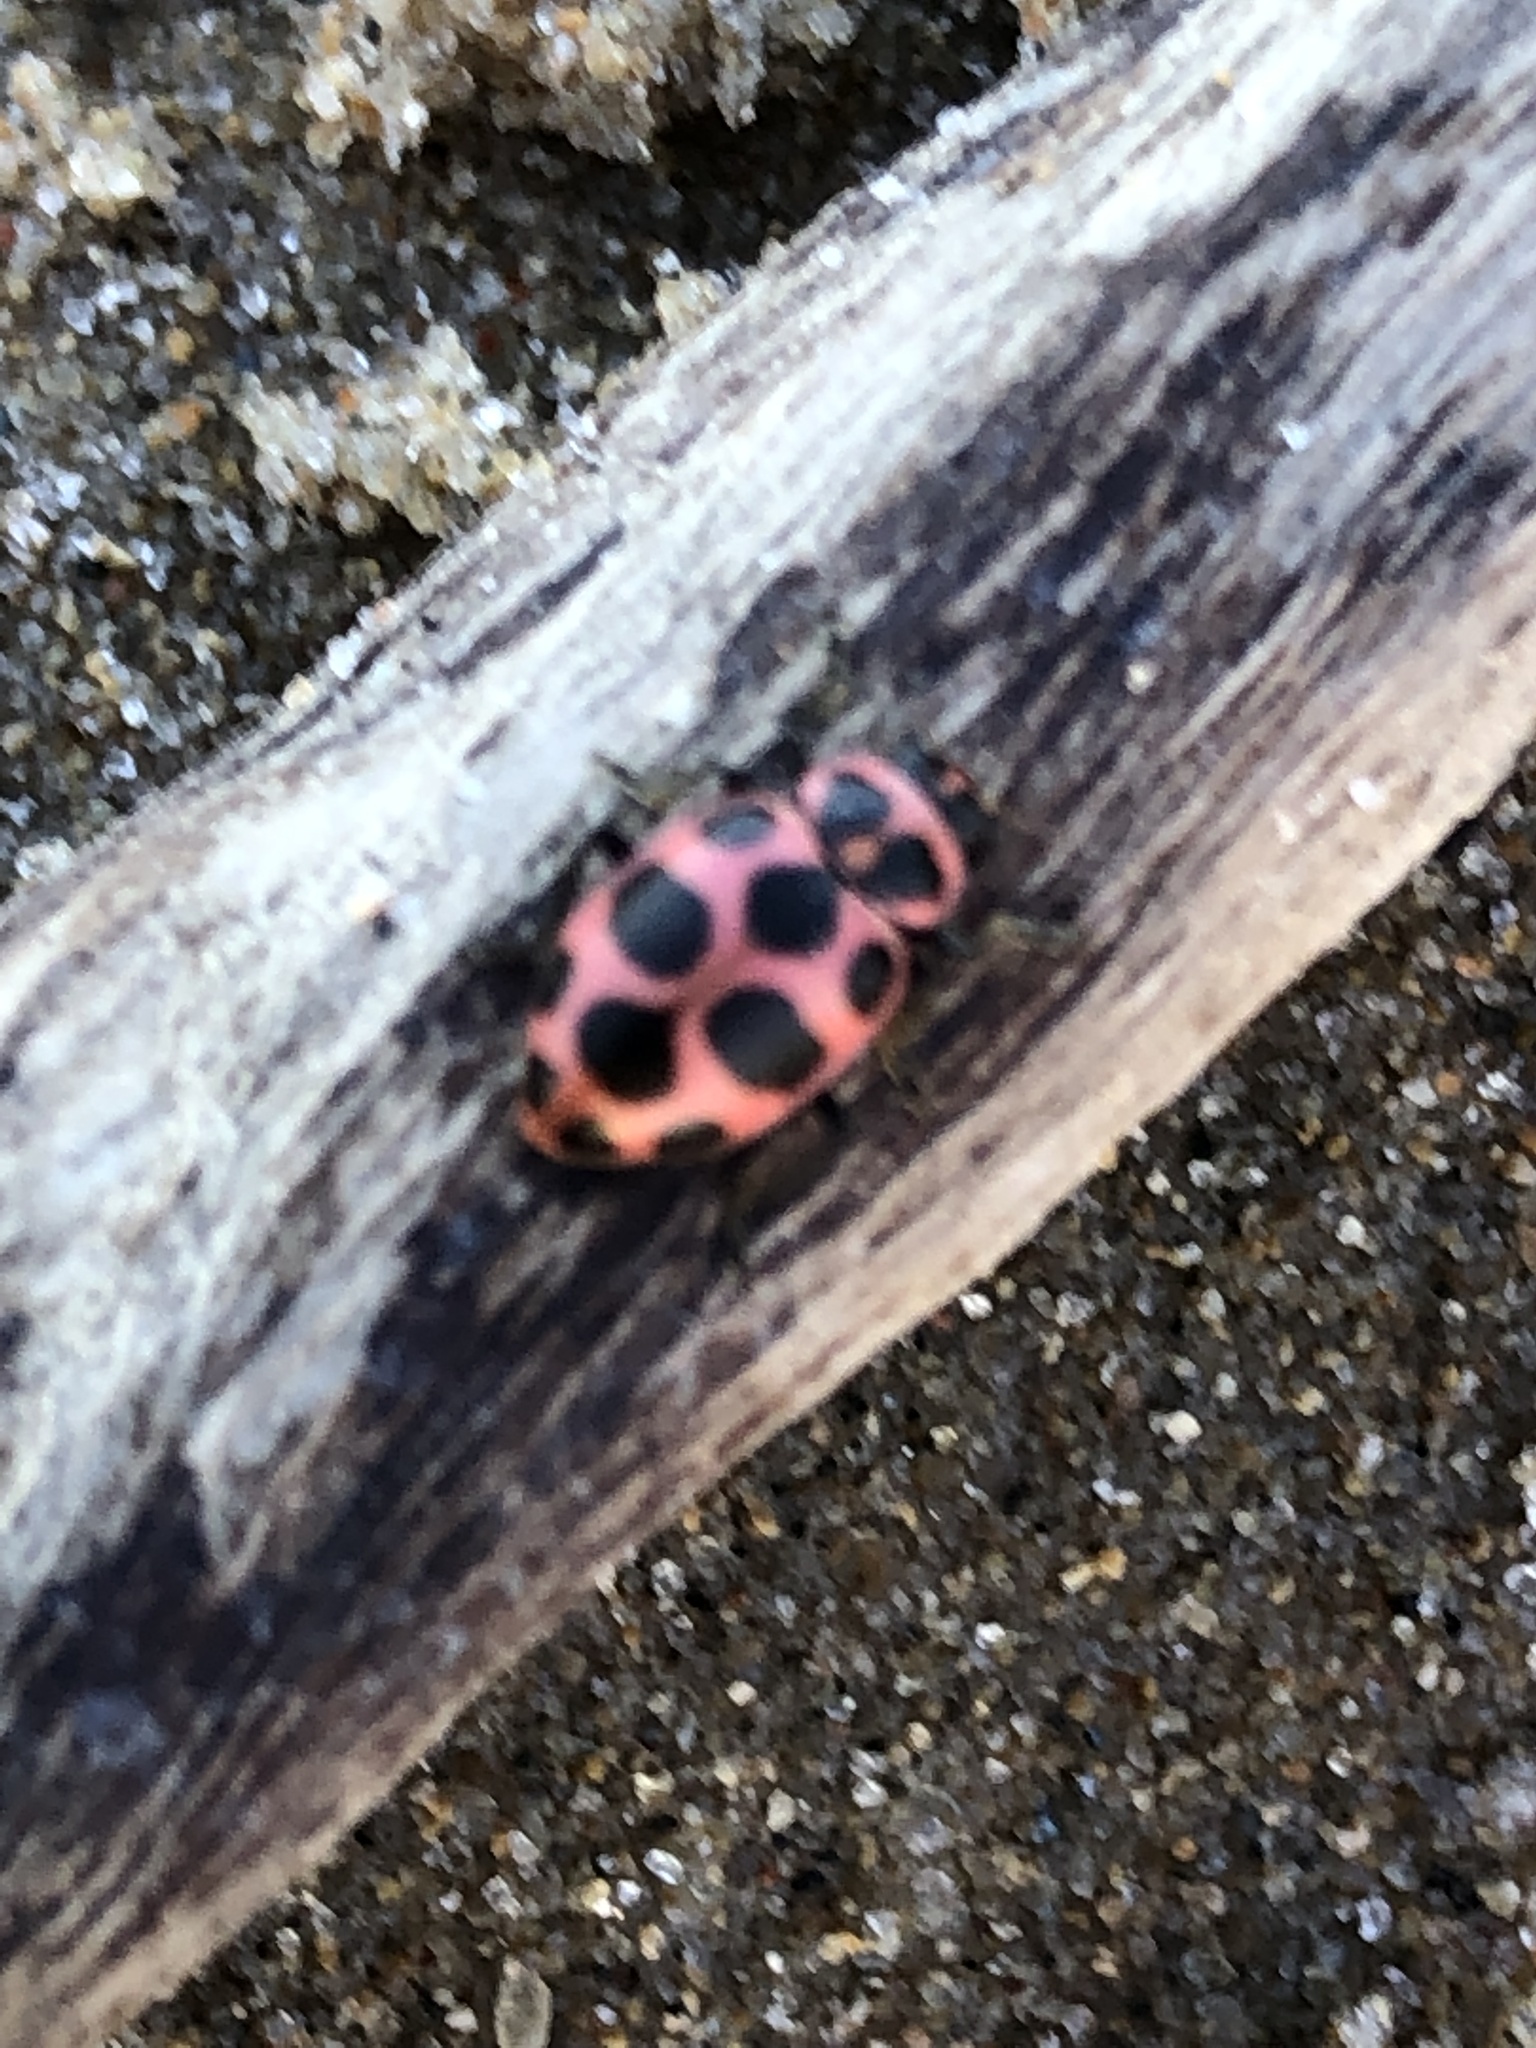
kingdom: Animalia
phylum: Arthropoda
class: Insecta
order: Coleoptera
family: Coccinellidae
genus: Coleomegilla
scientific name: Coleomegilla maculata
